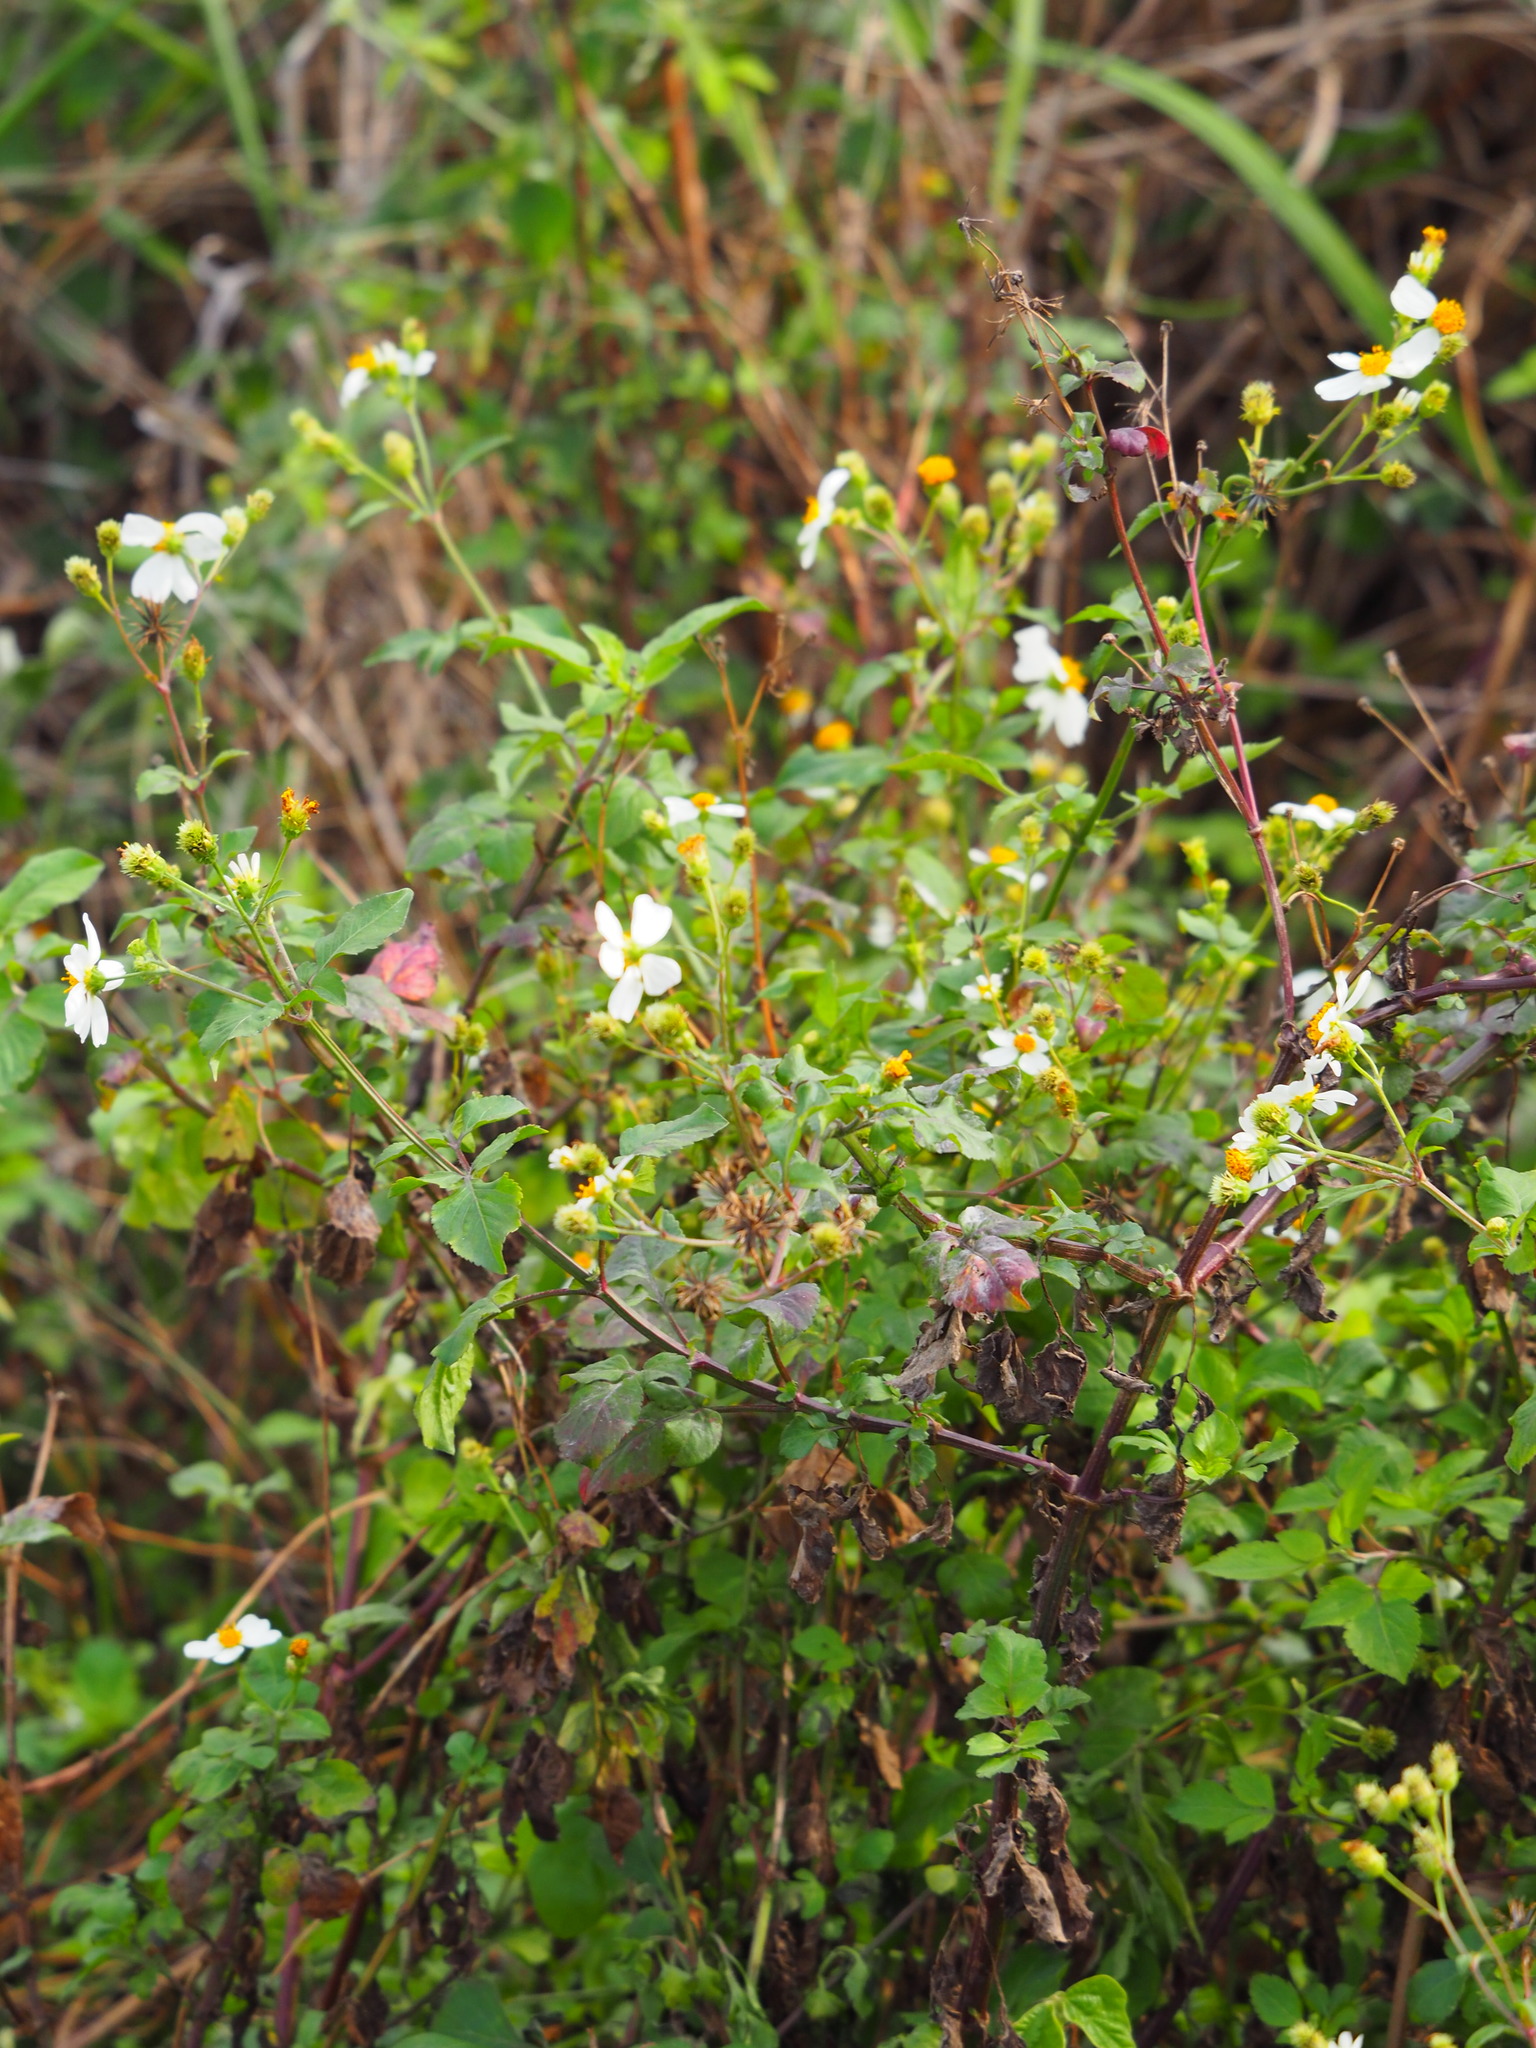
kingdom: Plantae
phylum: Tracheophyta
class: Magnoliopsida
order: Asterales
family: Asteraceae
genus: Bidens
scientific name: Bidens alba
